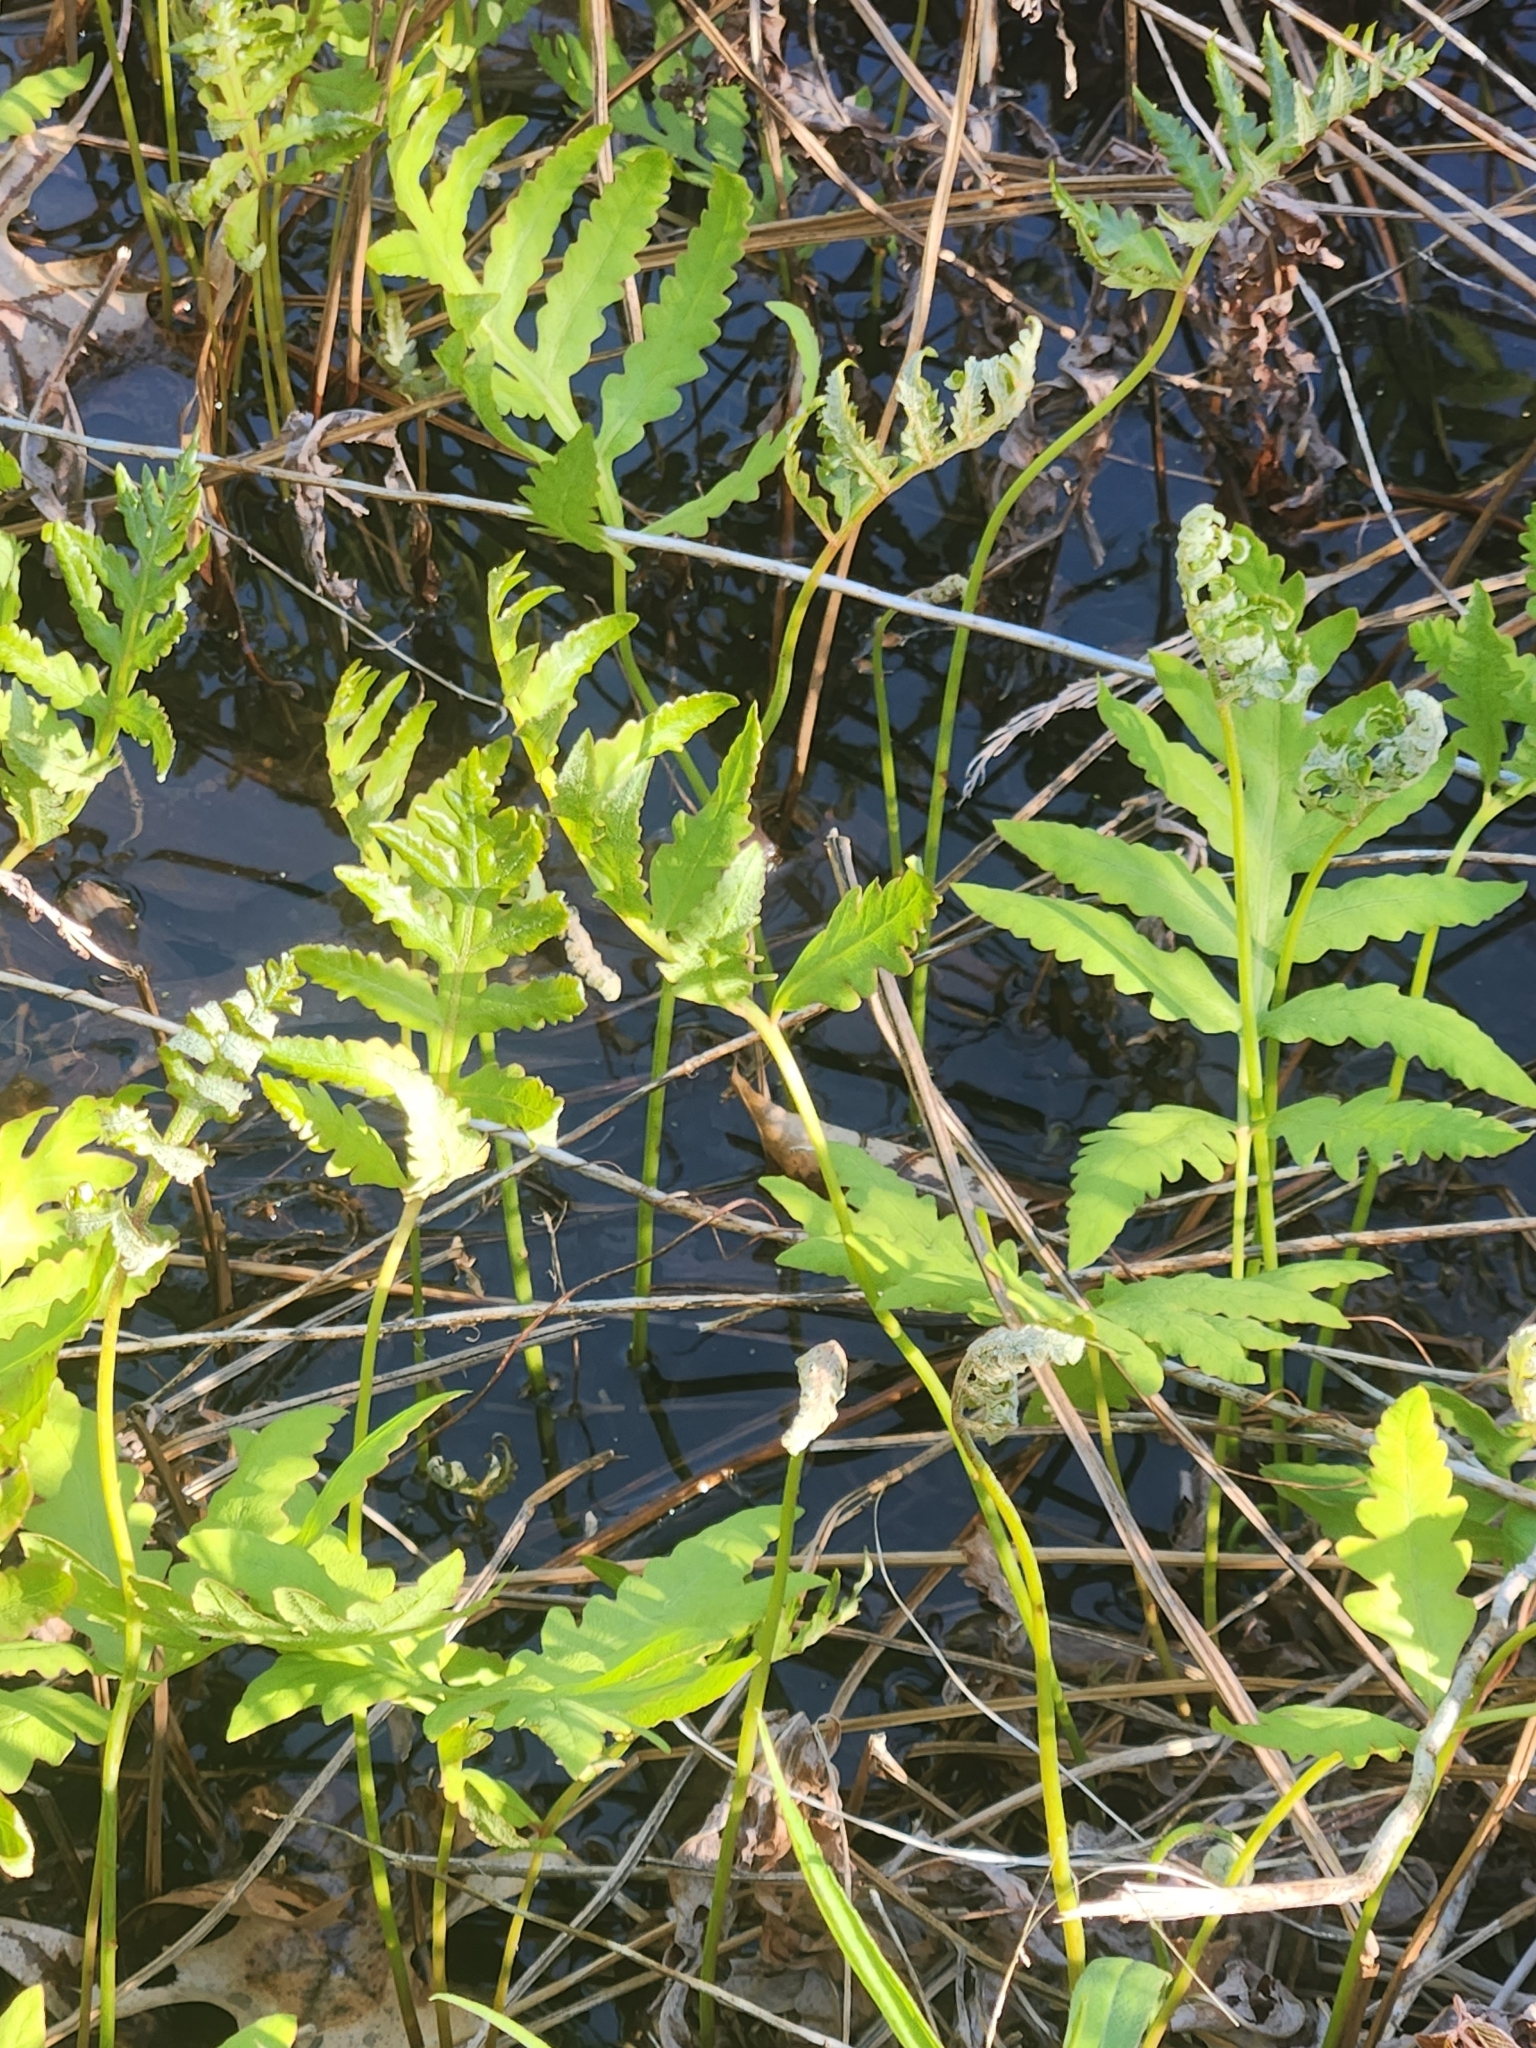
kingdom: Plantae
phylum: Tracheophyta
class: Polypodiopsida
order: Polypodiales
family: Onocleaceae
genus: Onoclea
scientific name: Onoclea sensibilis
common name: Sensitive fern
